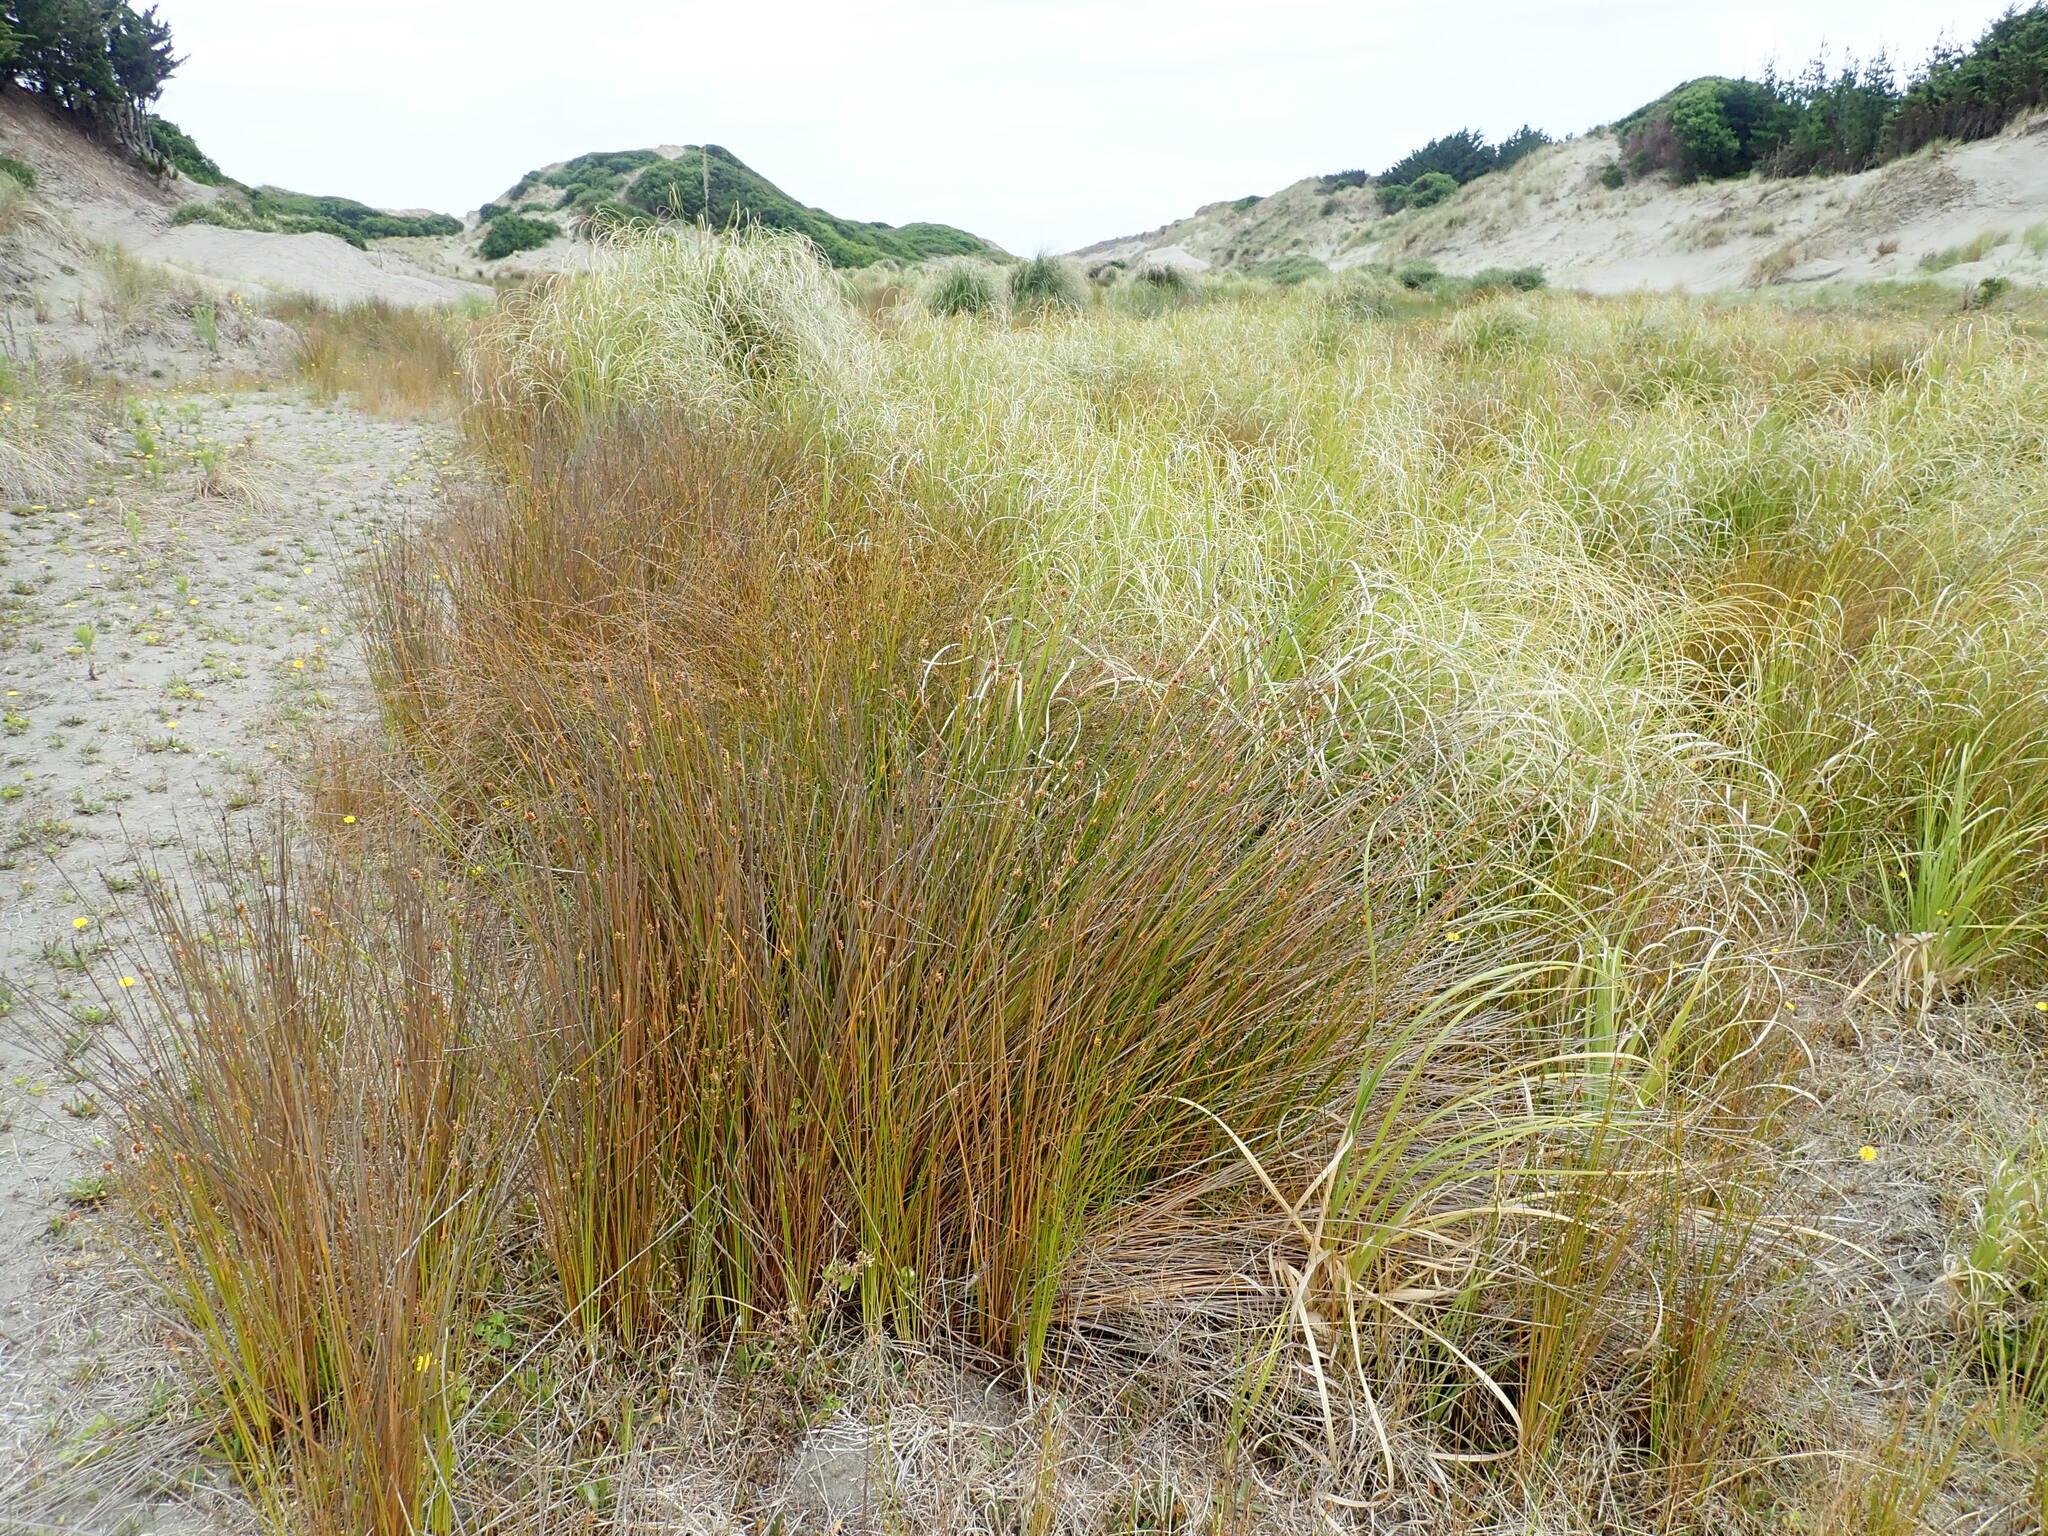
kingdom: Plantae
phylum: Tracheophyta
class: Liliopsida
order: Poales
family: Cyperaceae
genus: Ficinia
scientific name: Ficinia nodosa
